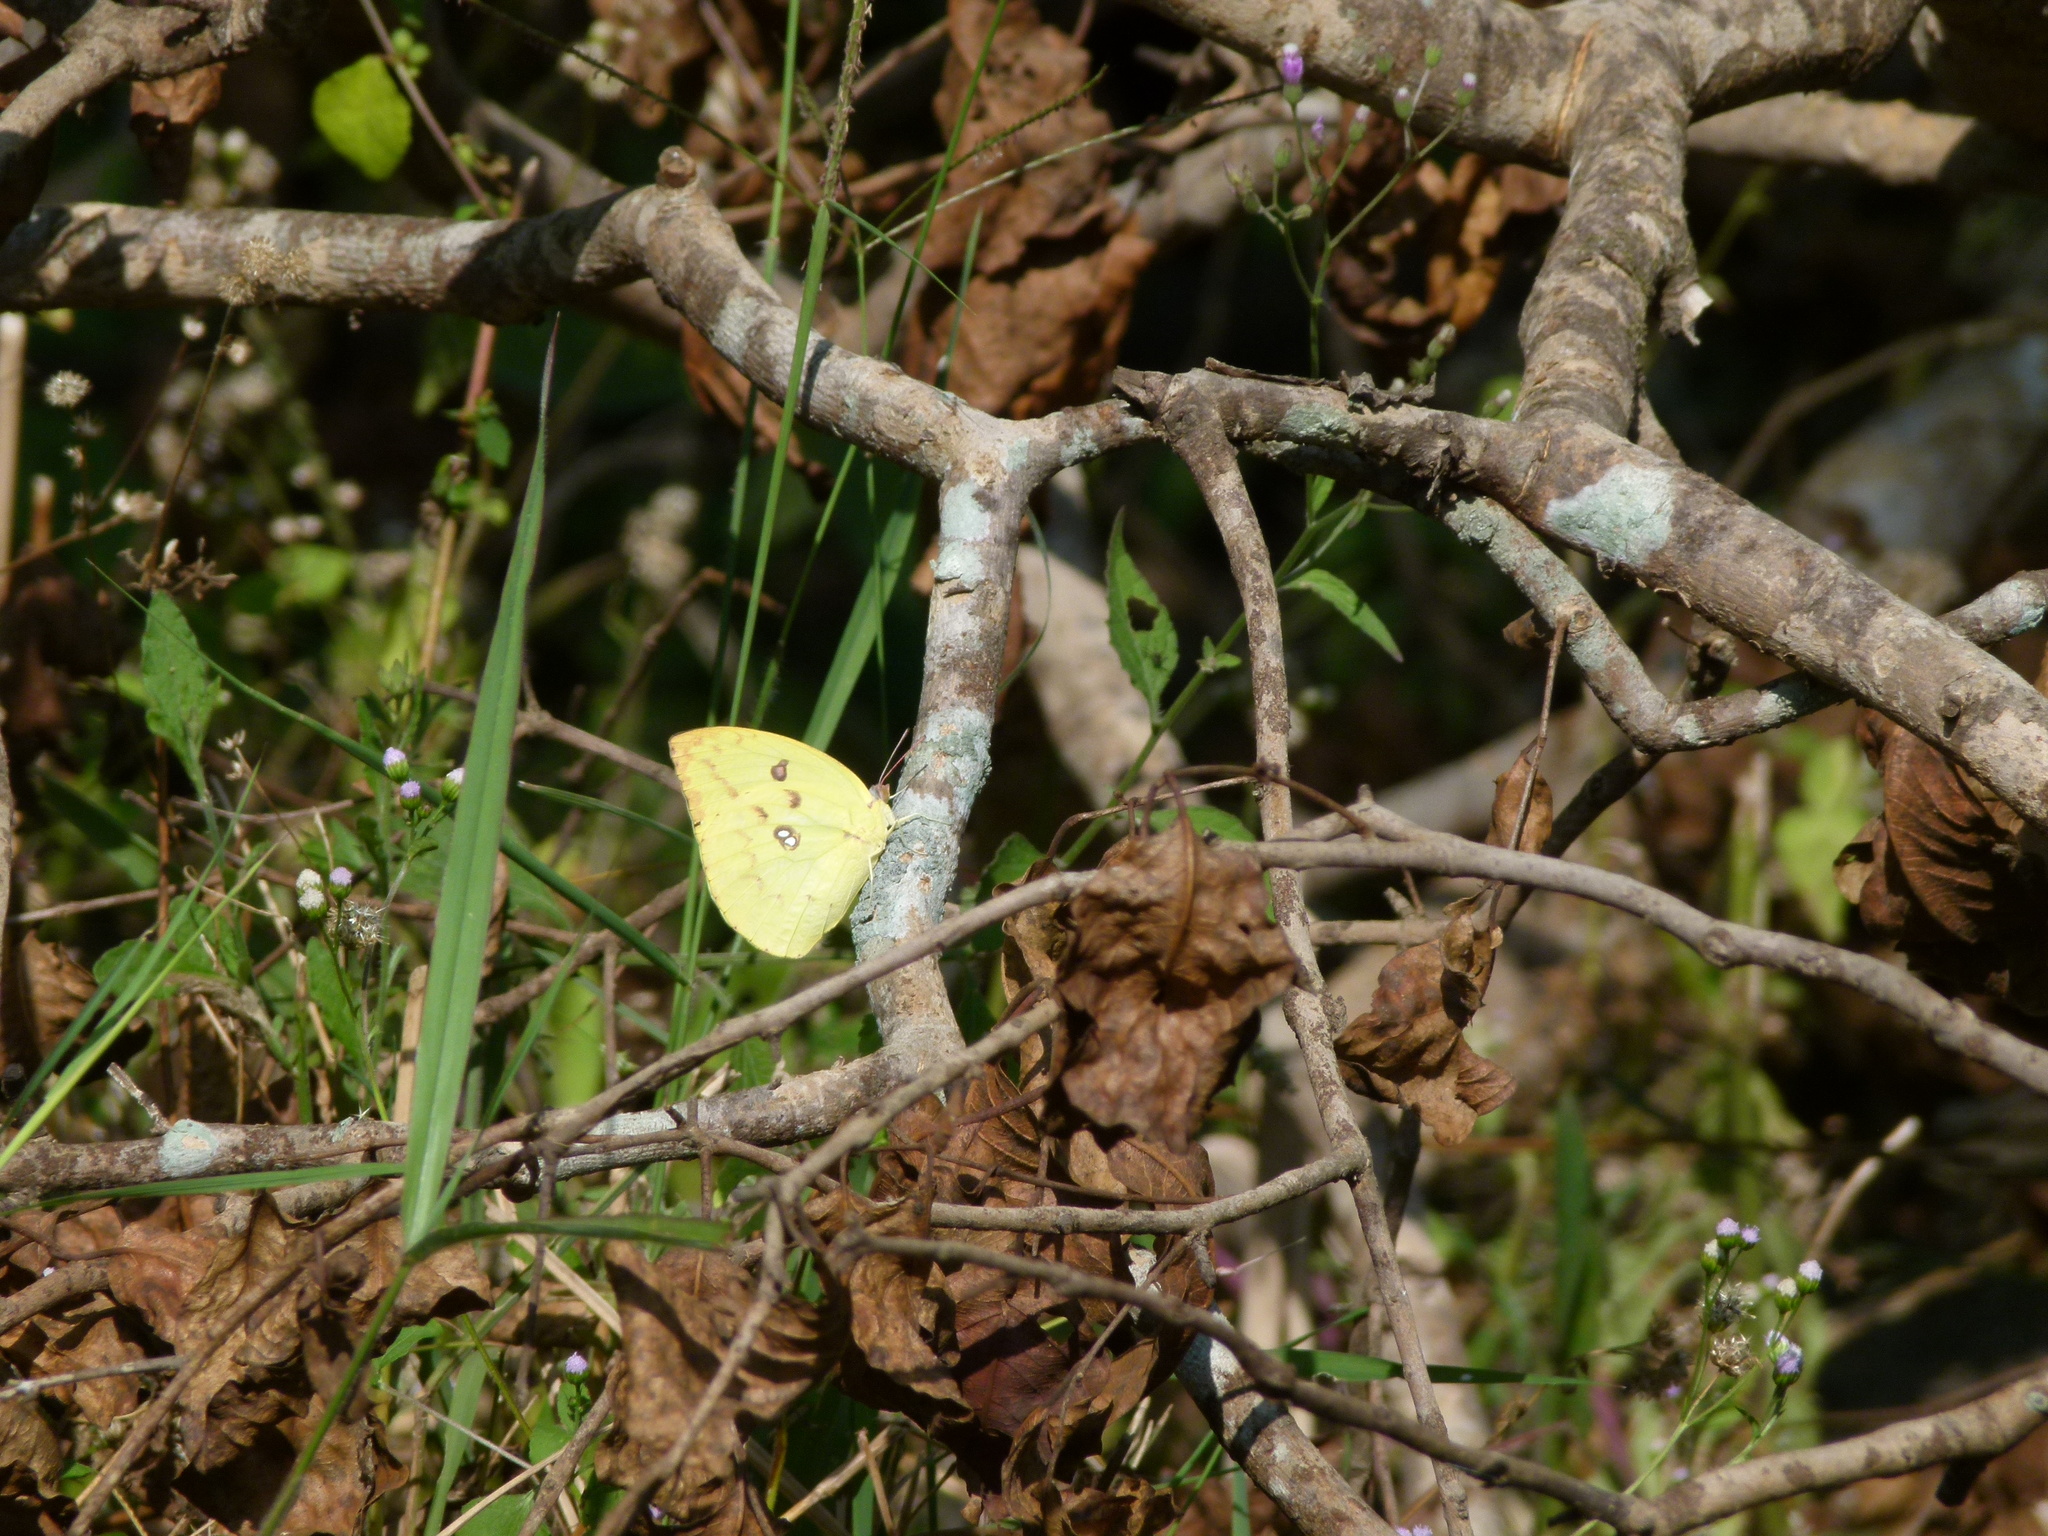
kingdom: Animalia
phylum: Arthropoda
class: Insecta
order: Lepidoptera
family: Pieridae
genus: Catopsilia
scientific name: Catopsilia pomona
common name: Common emigrant
